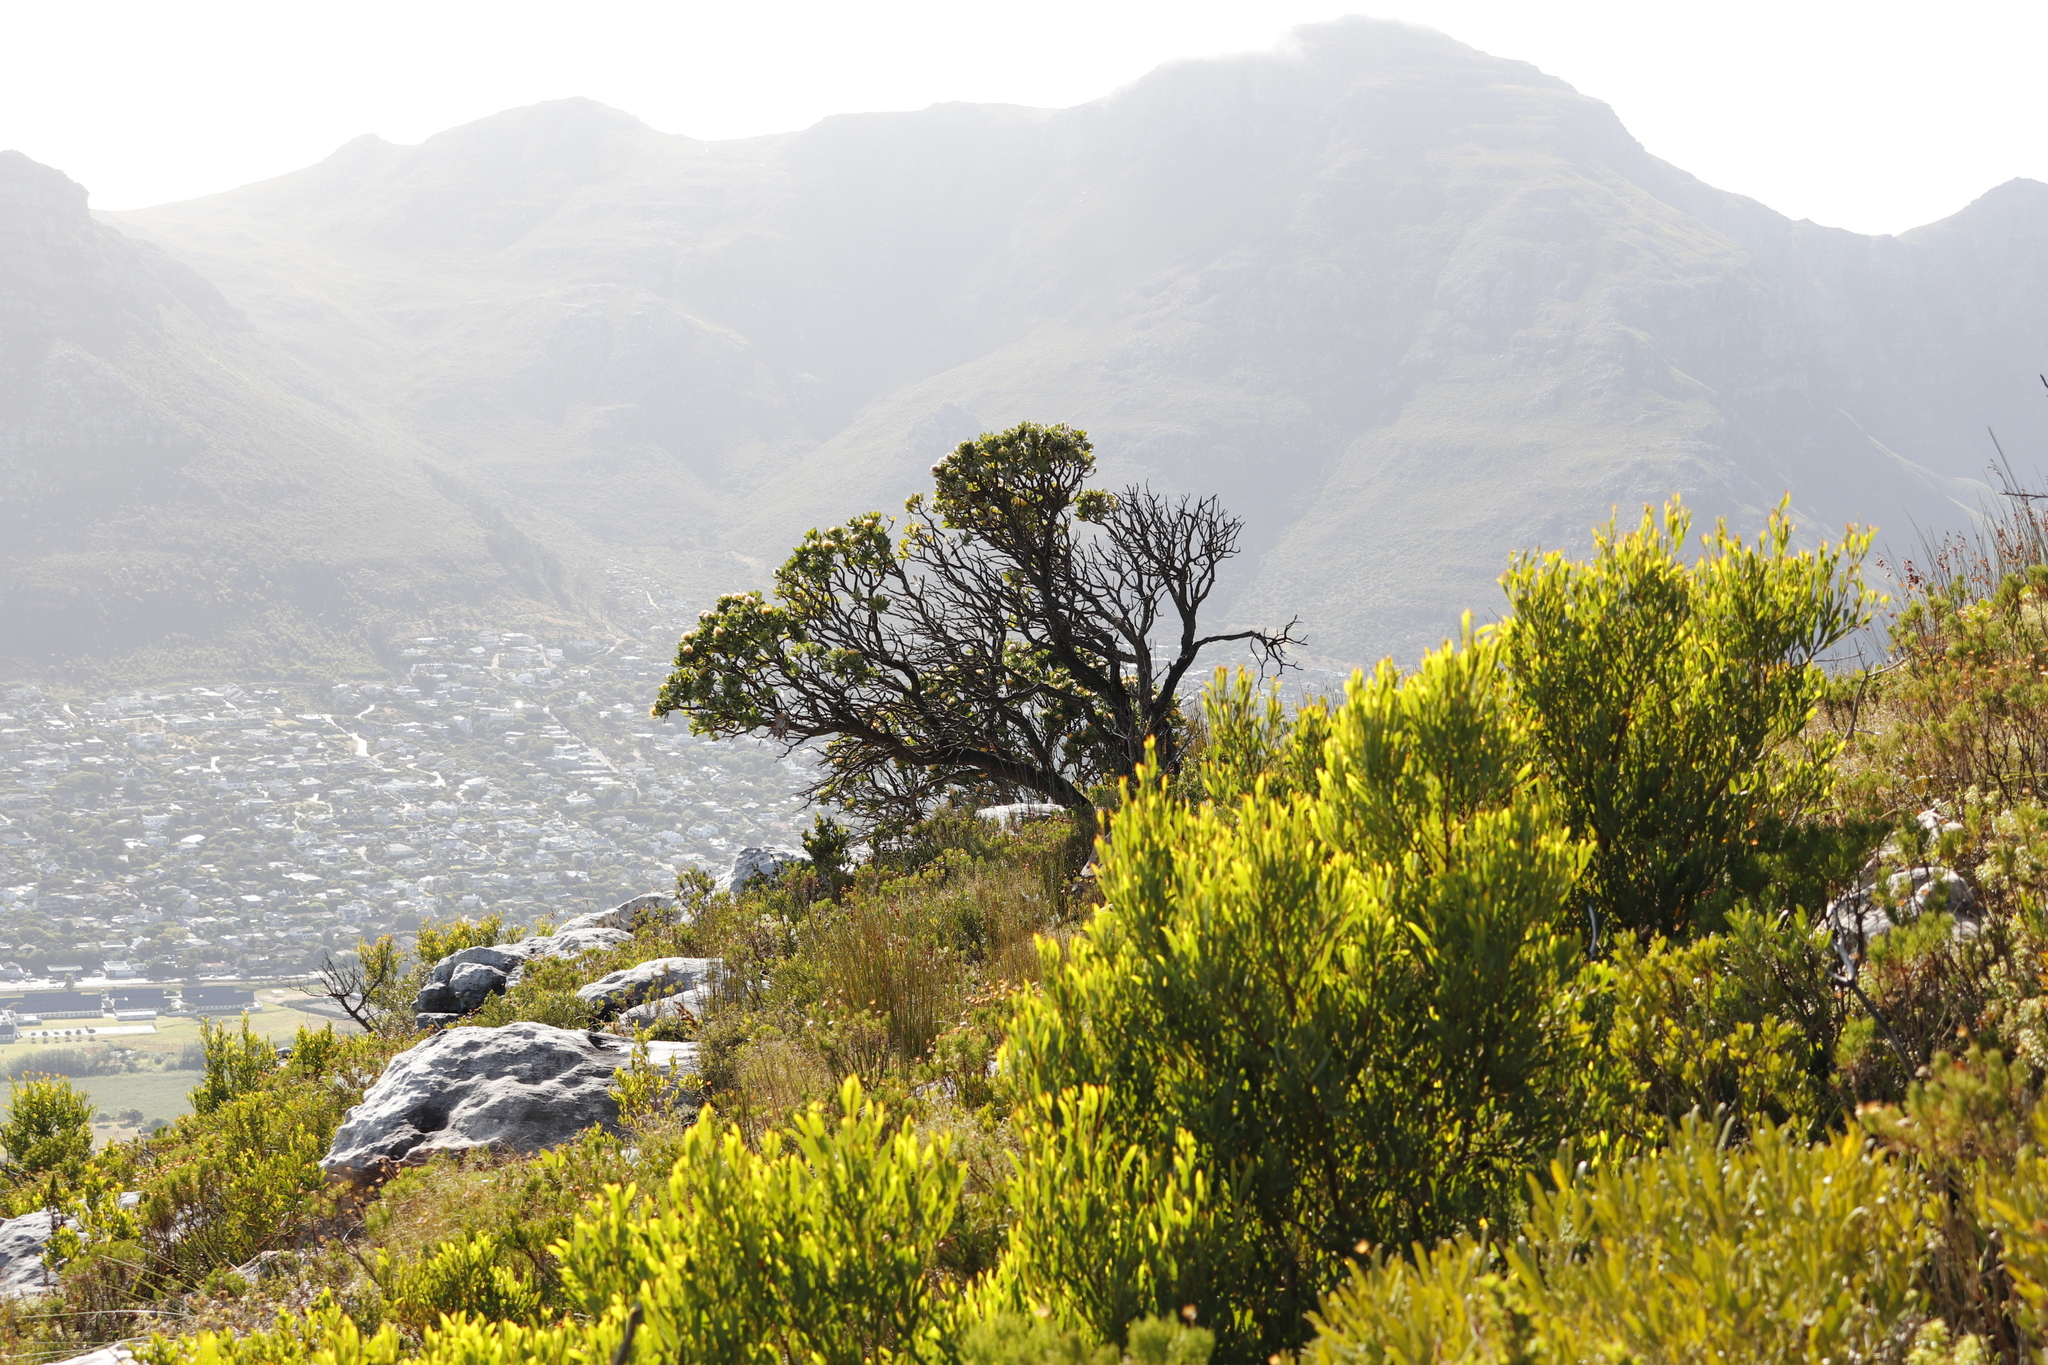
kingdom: Plantae
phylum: Tracheophyta
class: Magnoliopsida
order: Proteales
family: Proteaceae
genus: Leucospermum
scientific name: Leucospermum conocarpodendron
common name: Tree pincushion
